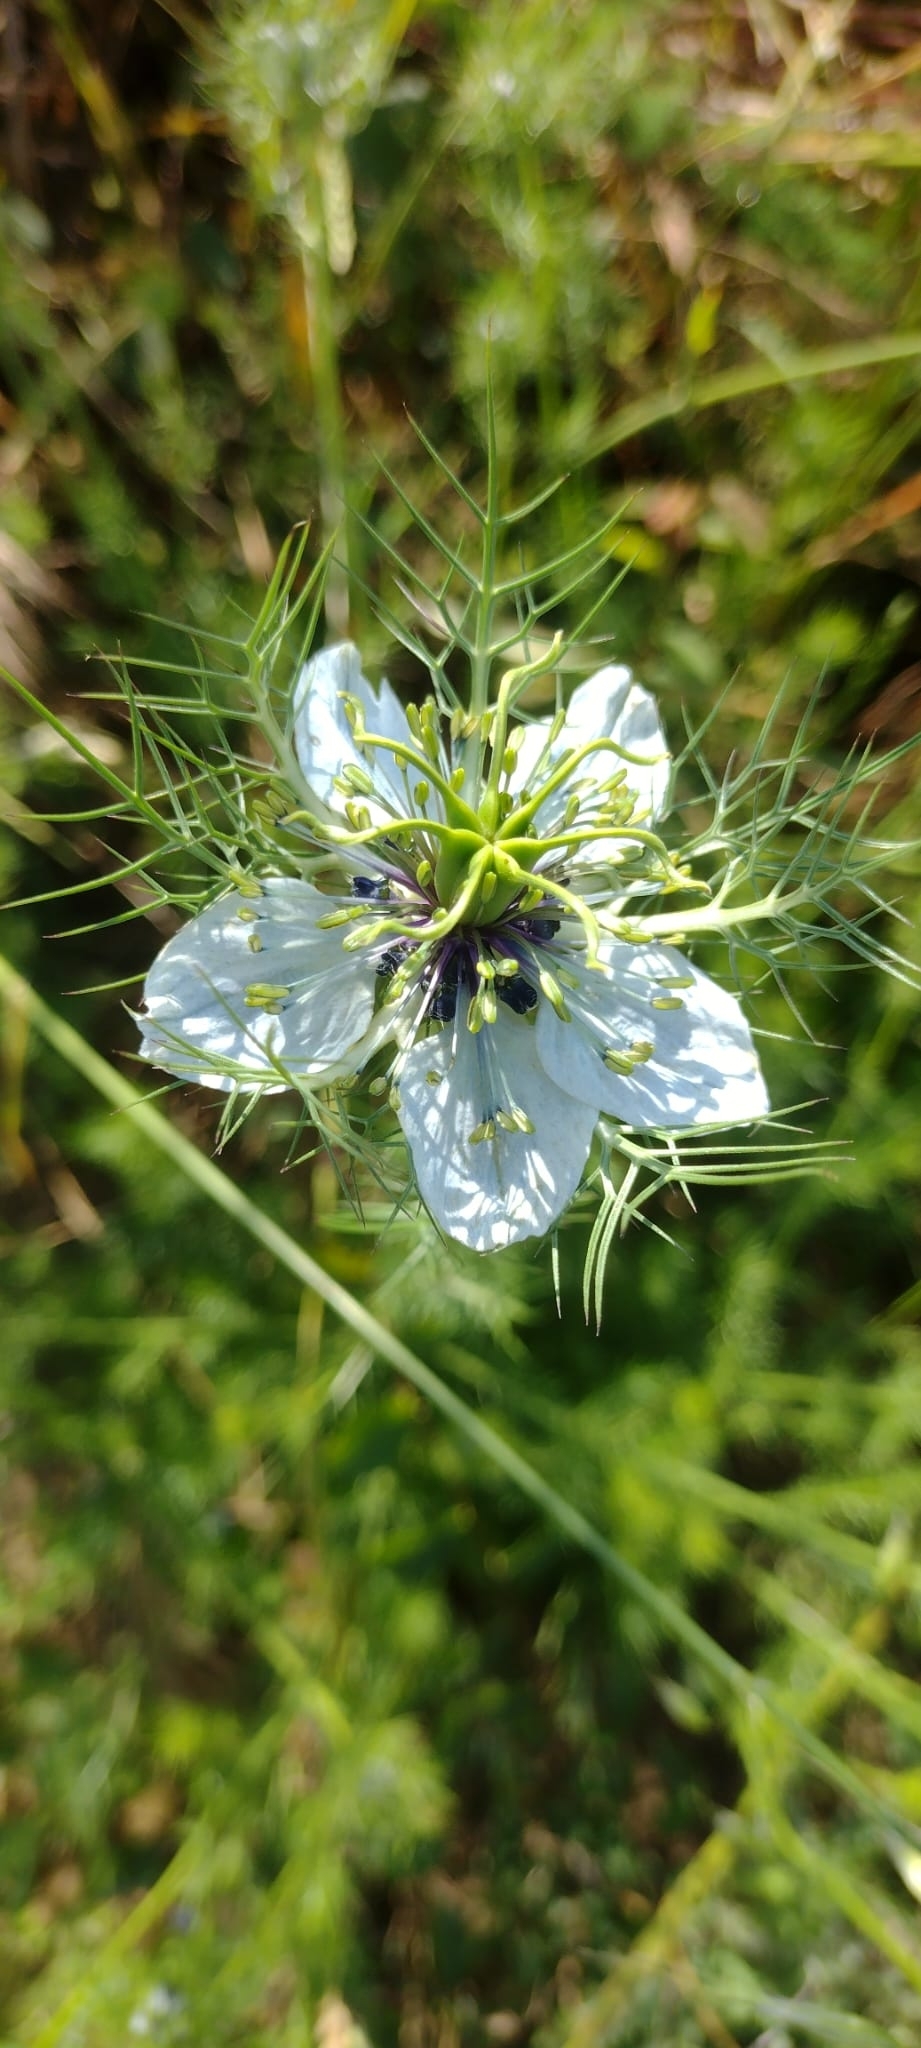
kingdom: Plantae
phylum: Tracheophyta
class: Magnoliopsida
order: Ranunculales
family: Ranunculaceae
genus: Nigella
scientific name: Nigella damascena
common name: Love-in-a-mist
